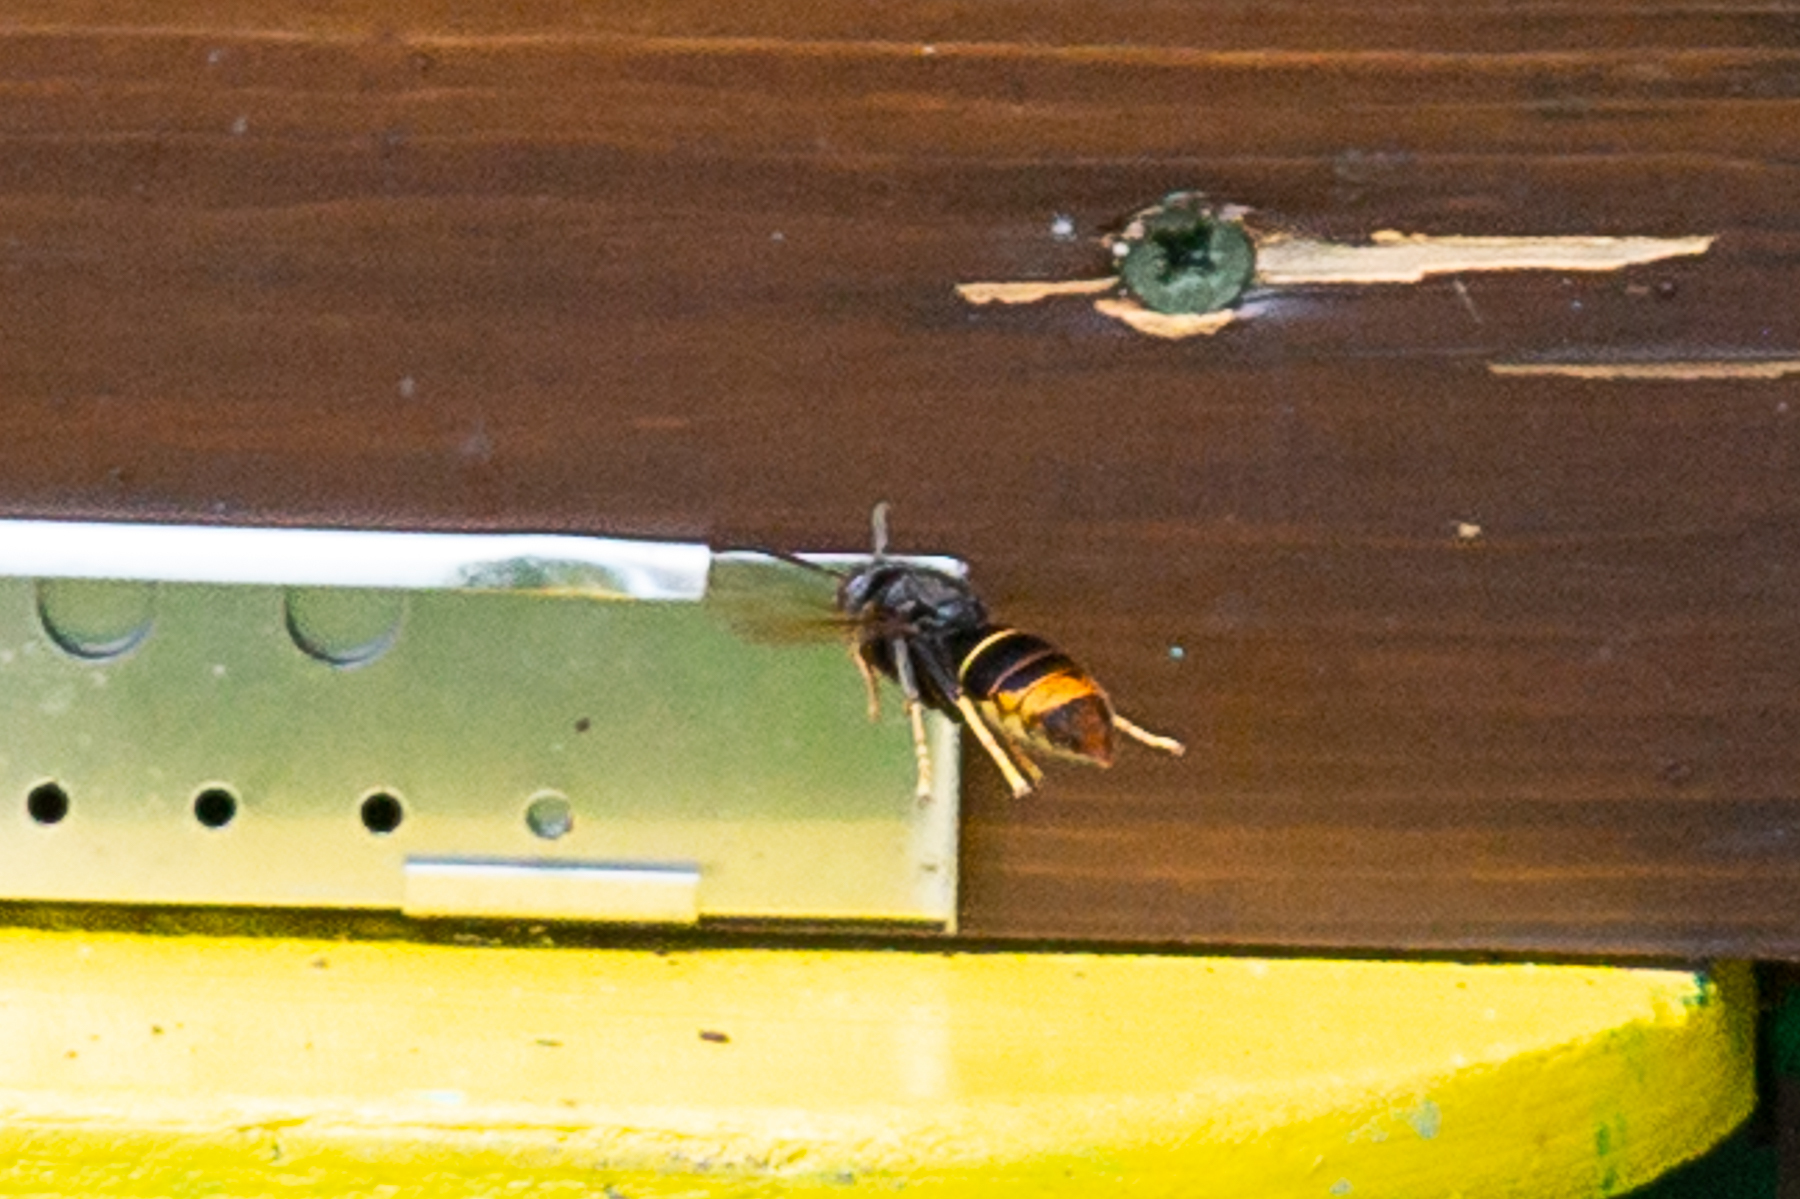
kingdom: Animalia
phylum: Arthropoda
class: Insecta
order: Hymenoptera
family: Vespidae
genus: Vespa
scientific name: Vespa velutina
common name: Asian hornet
